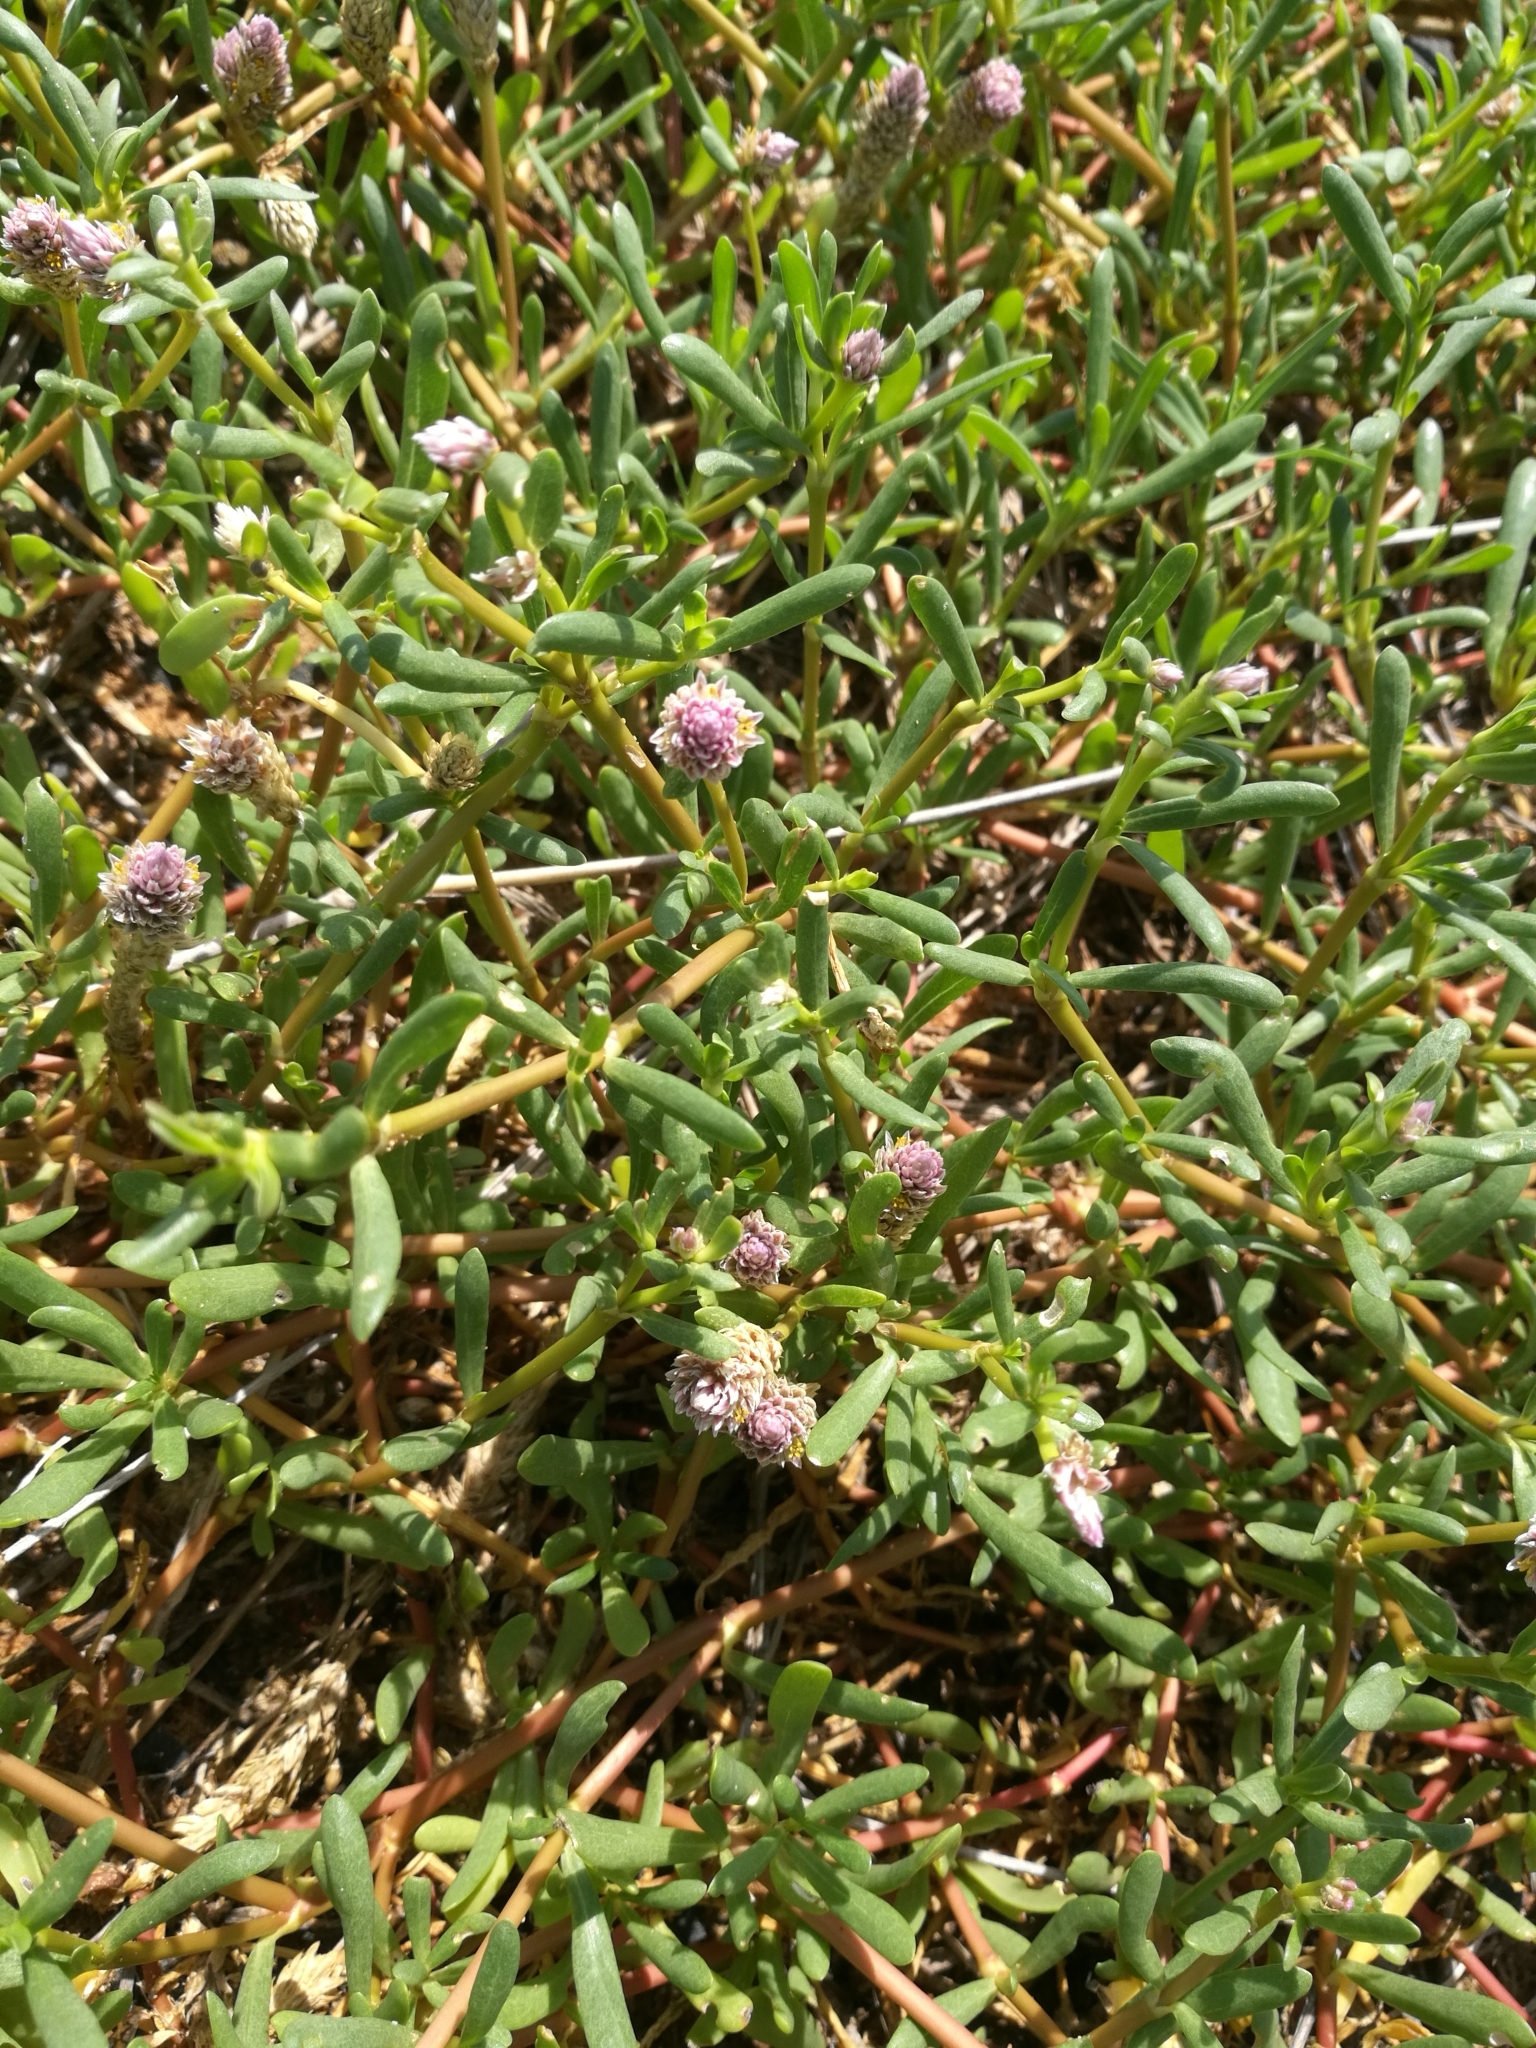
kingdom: Plantae
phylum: Tracheophyta
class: Magnoliopsida
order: Caryophyllales
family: Amaranthaceae
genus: Gomphrena
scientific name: Gomphrena vermicularis
